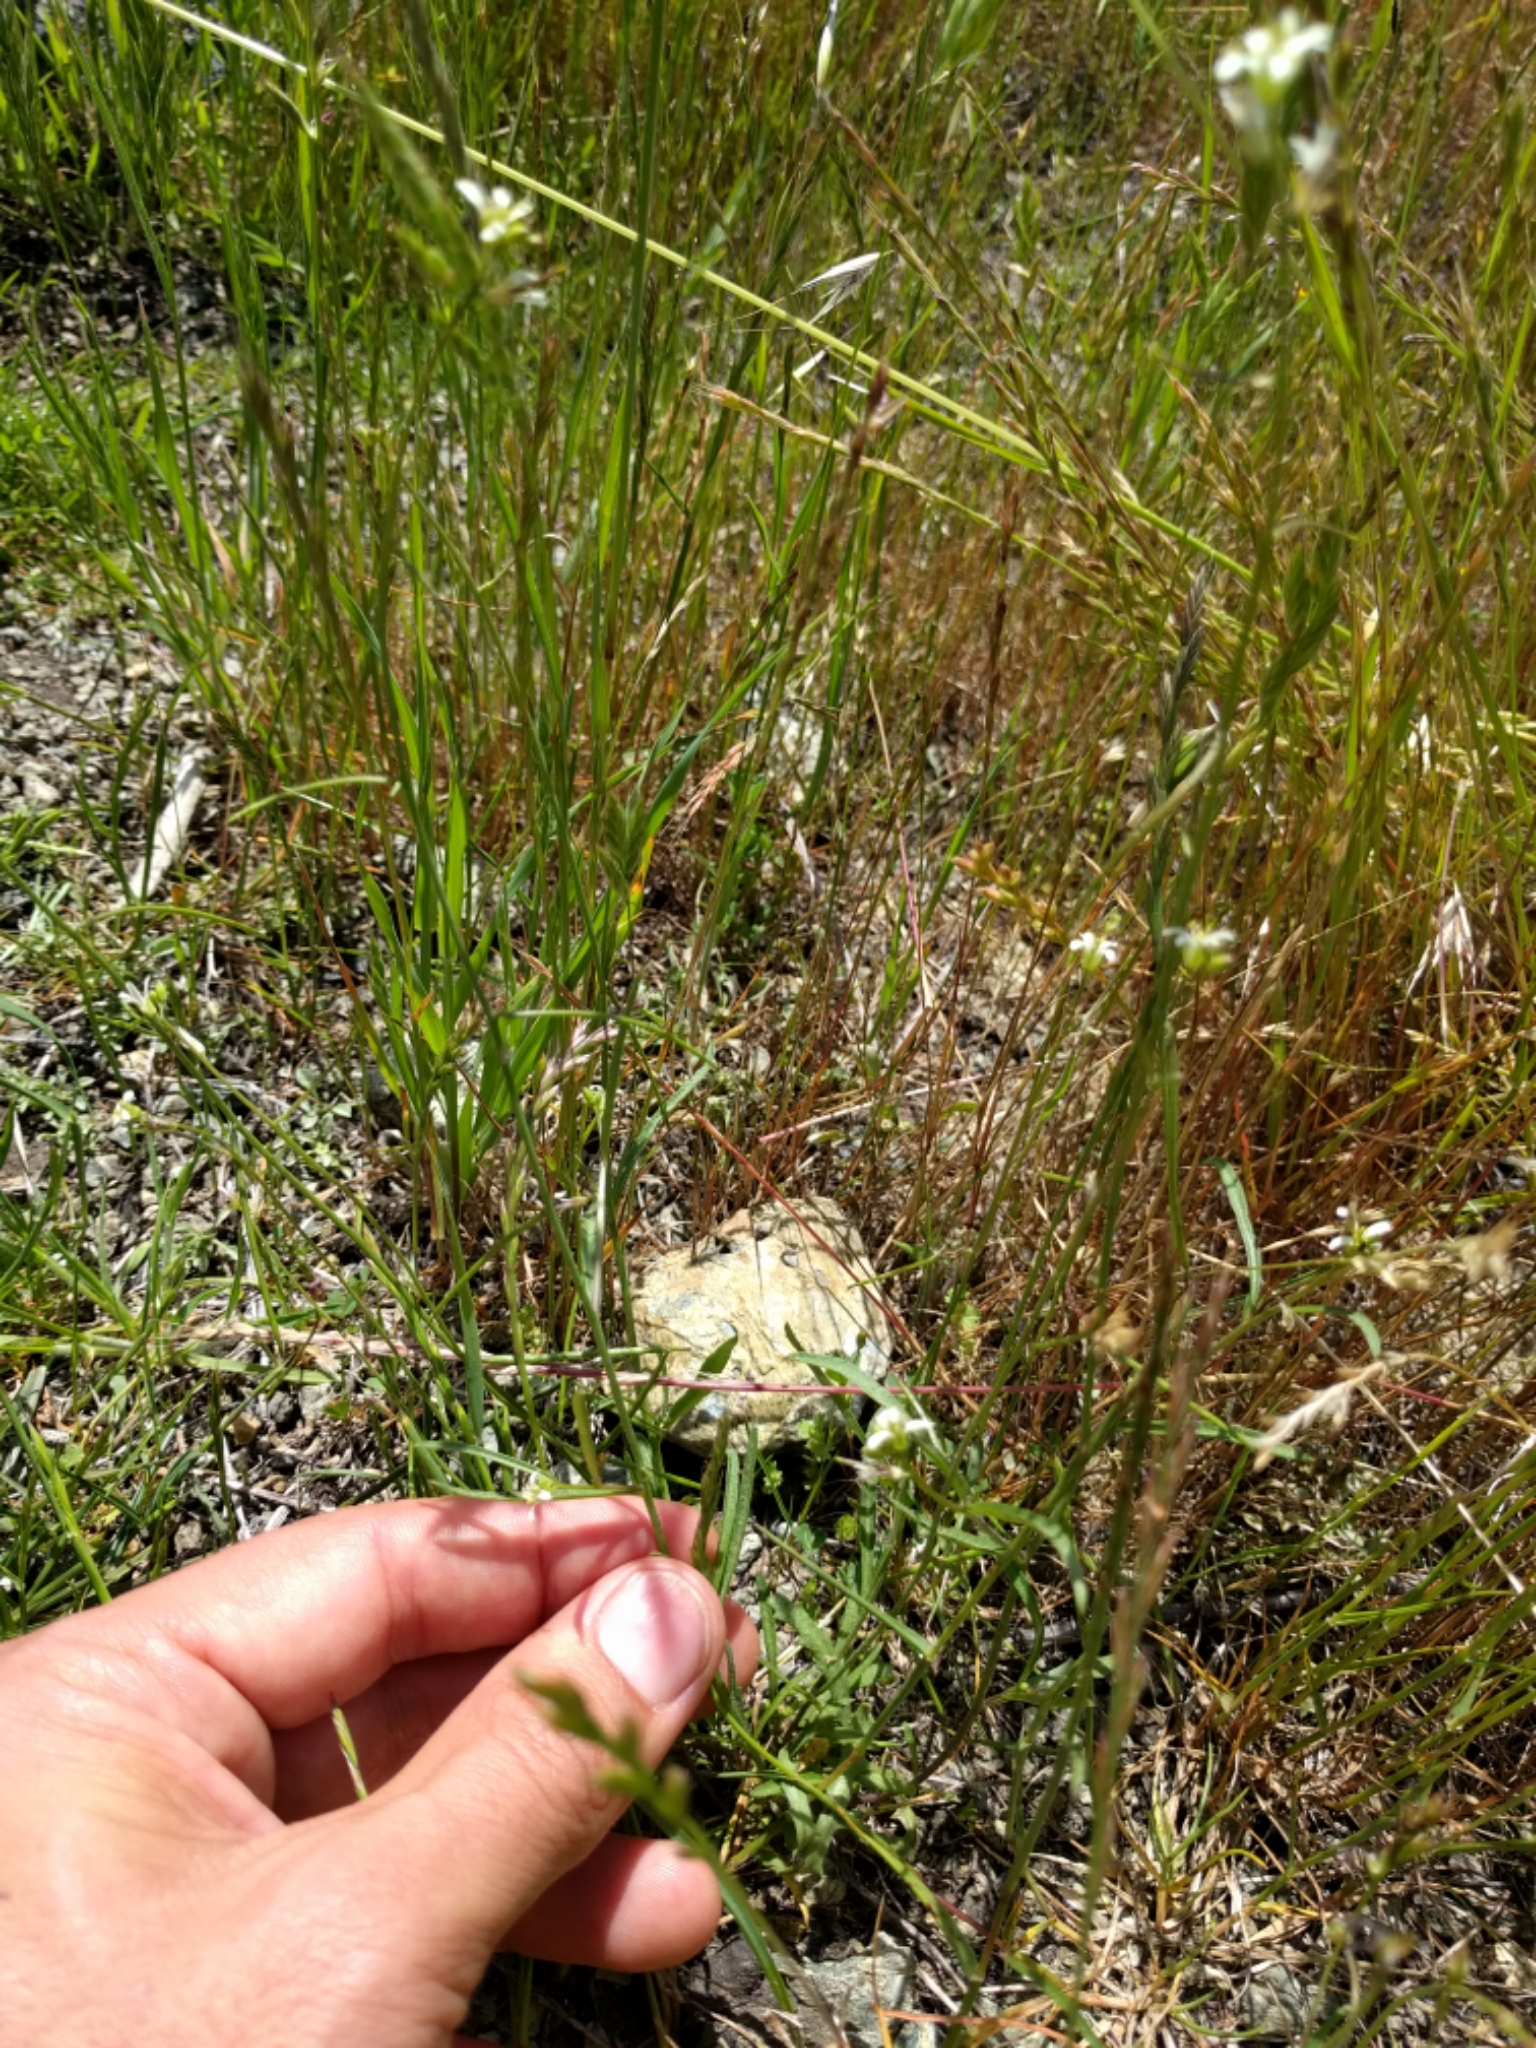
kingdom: Plantae
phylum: Tracheophyta
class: Magnoliopsida
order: Brassicales
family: Brassicaceae
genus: Streptanthus
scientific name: Streptanthus lasiophyllus
